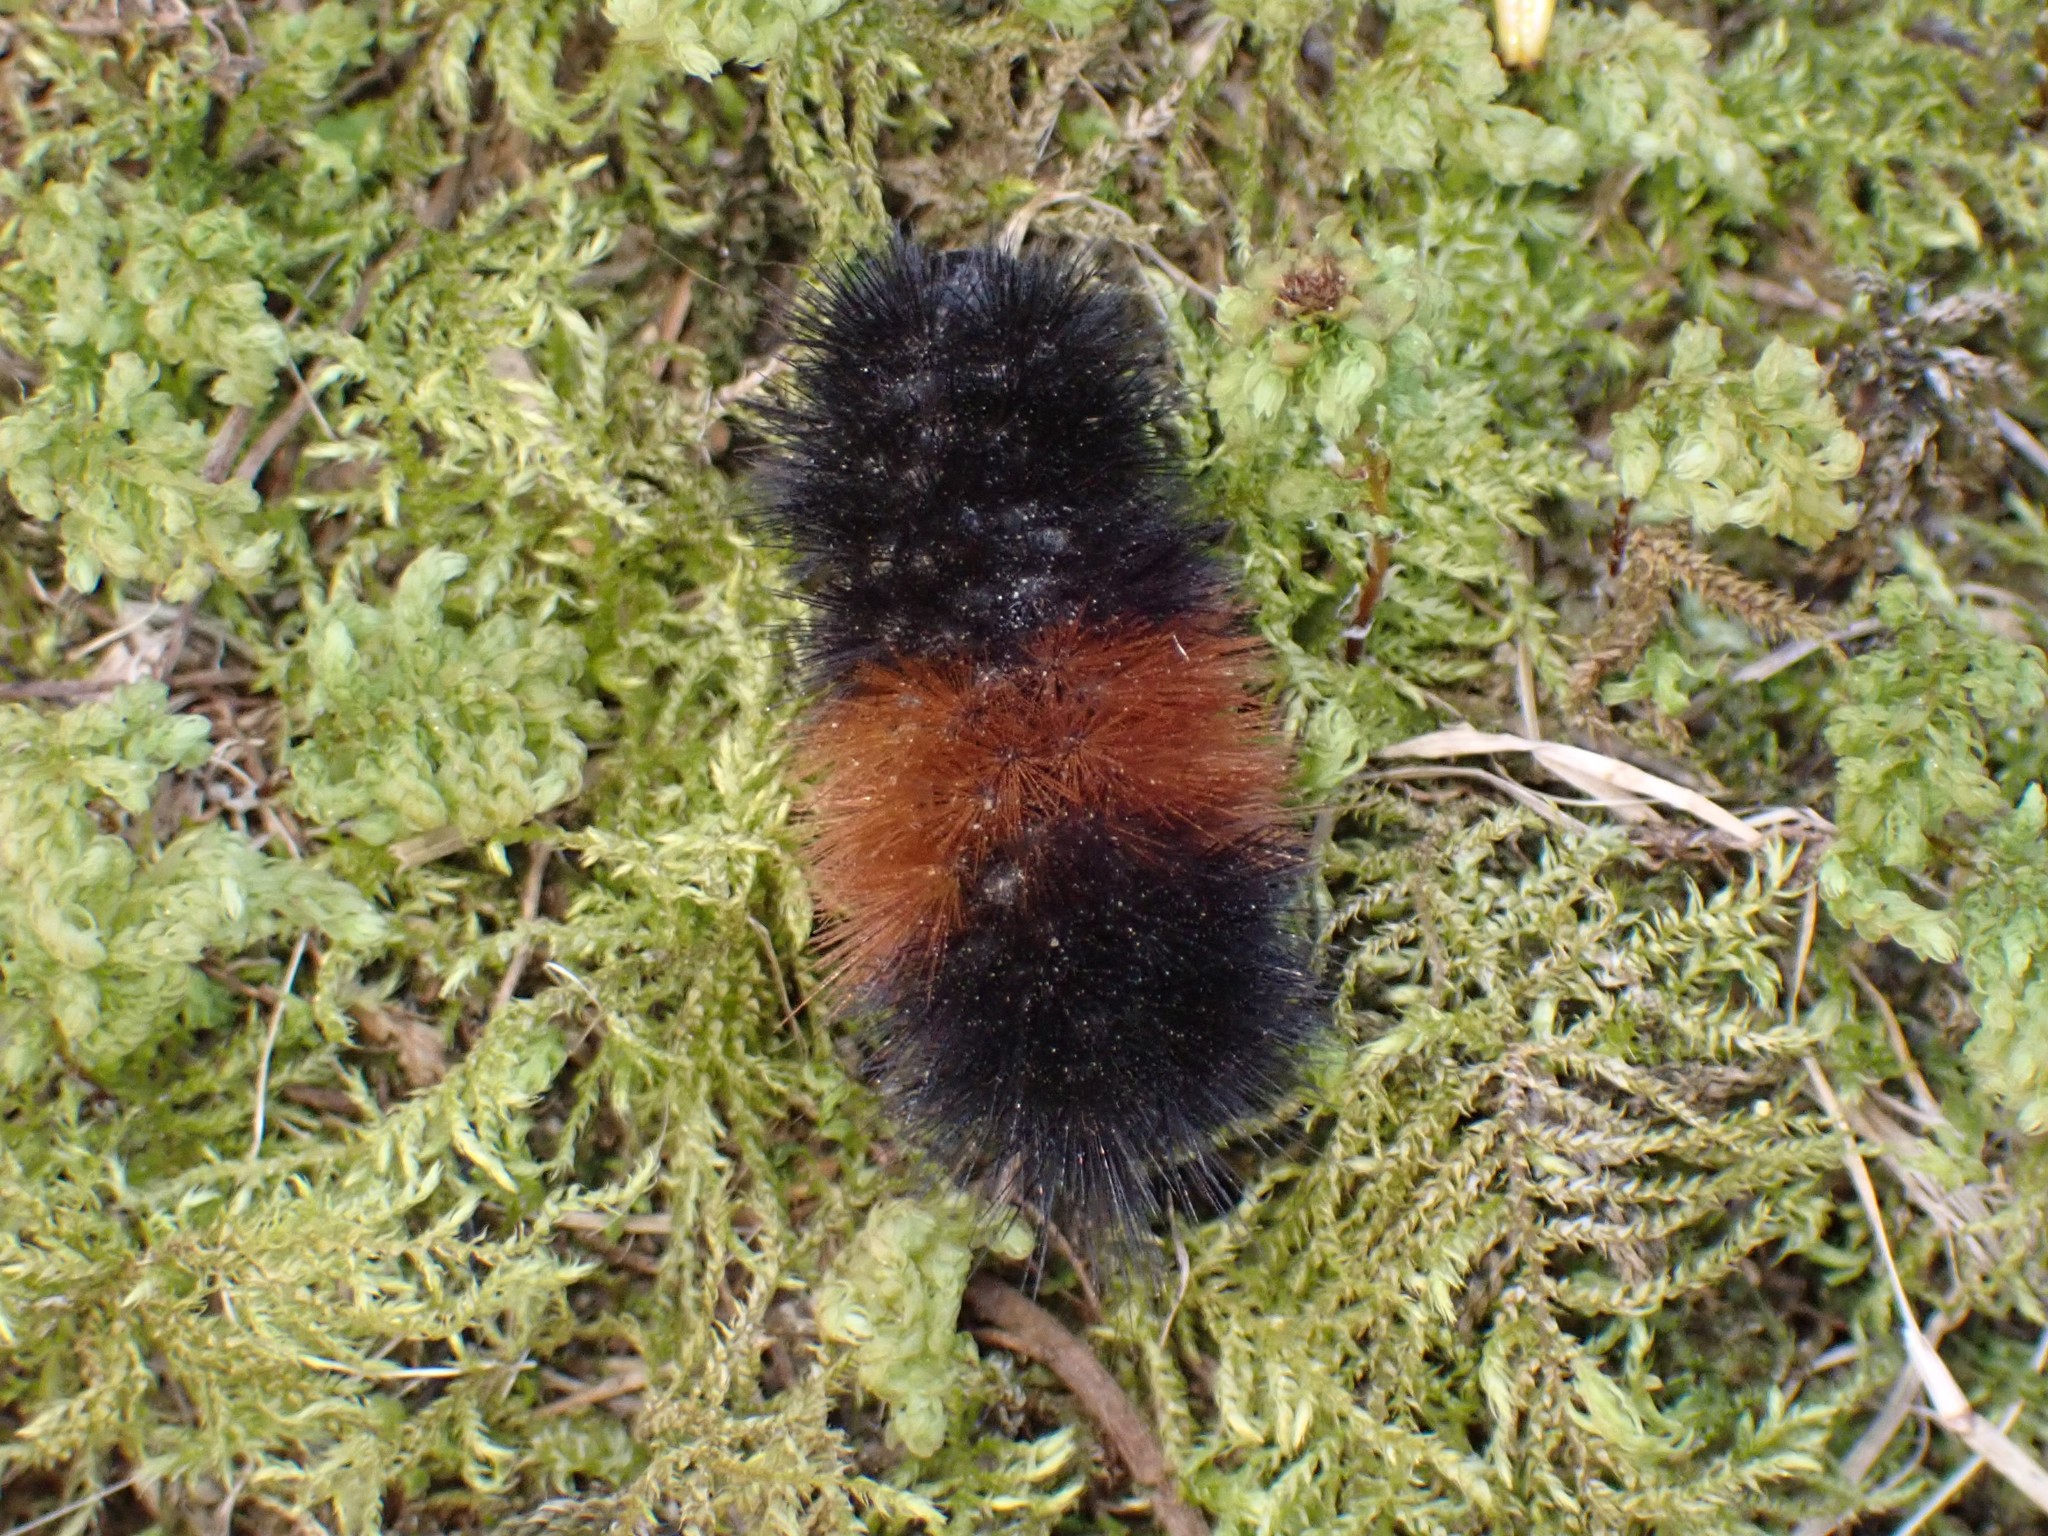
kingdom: Animalia
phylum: Arthropoda
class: Insecta
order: Lepidoptera
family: Erebidae
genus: Pyrrharctia
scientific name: Pyrrharctia isabella
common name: Isabella tiger moth
